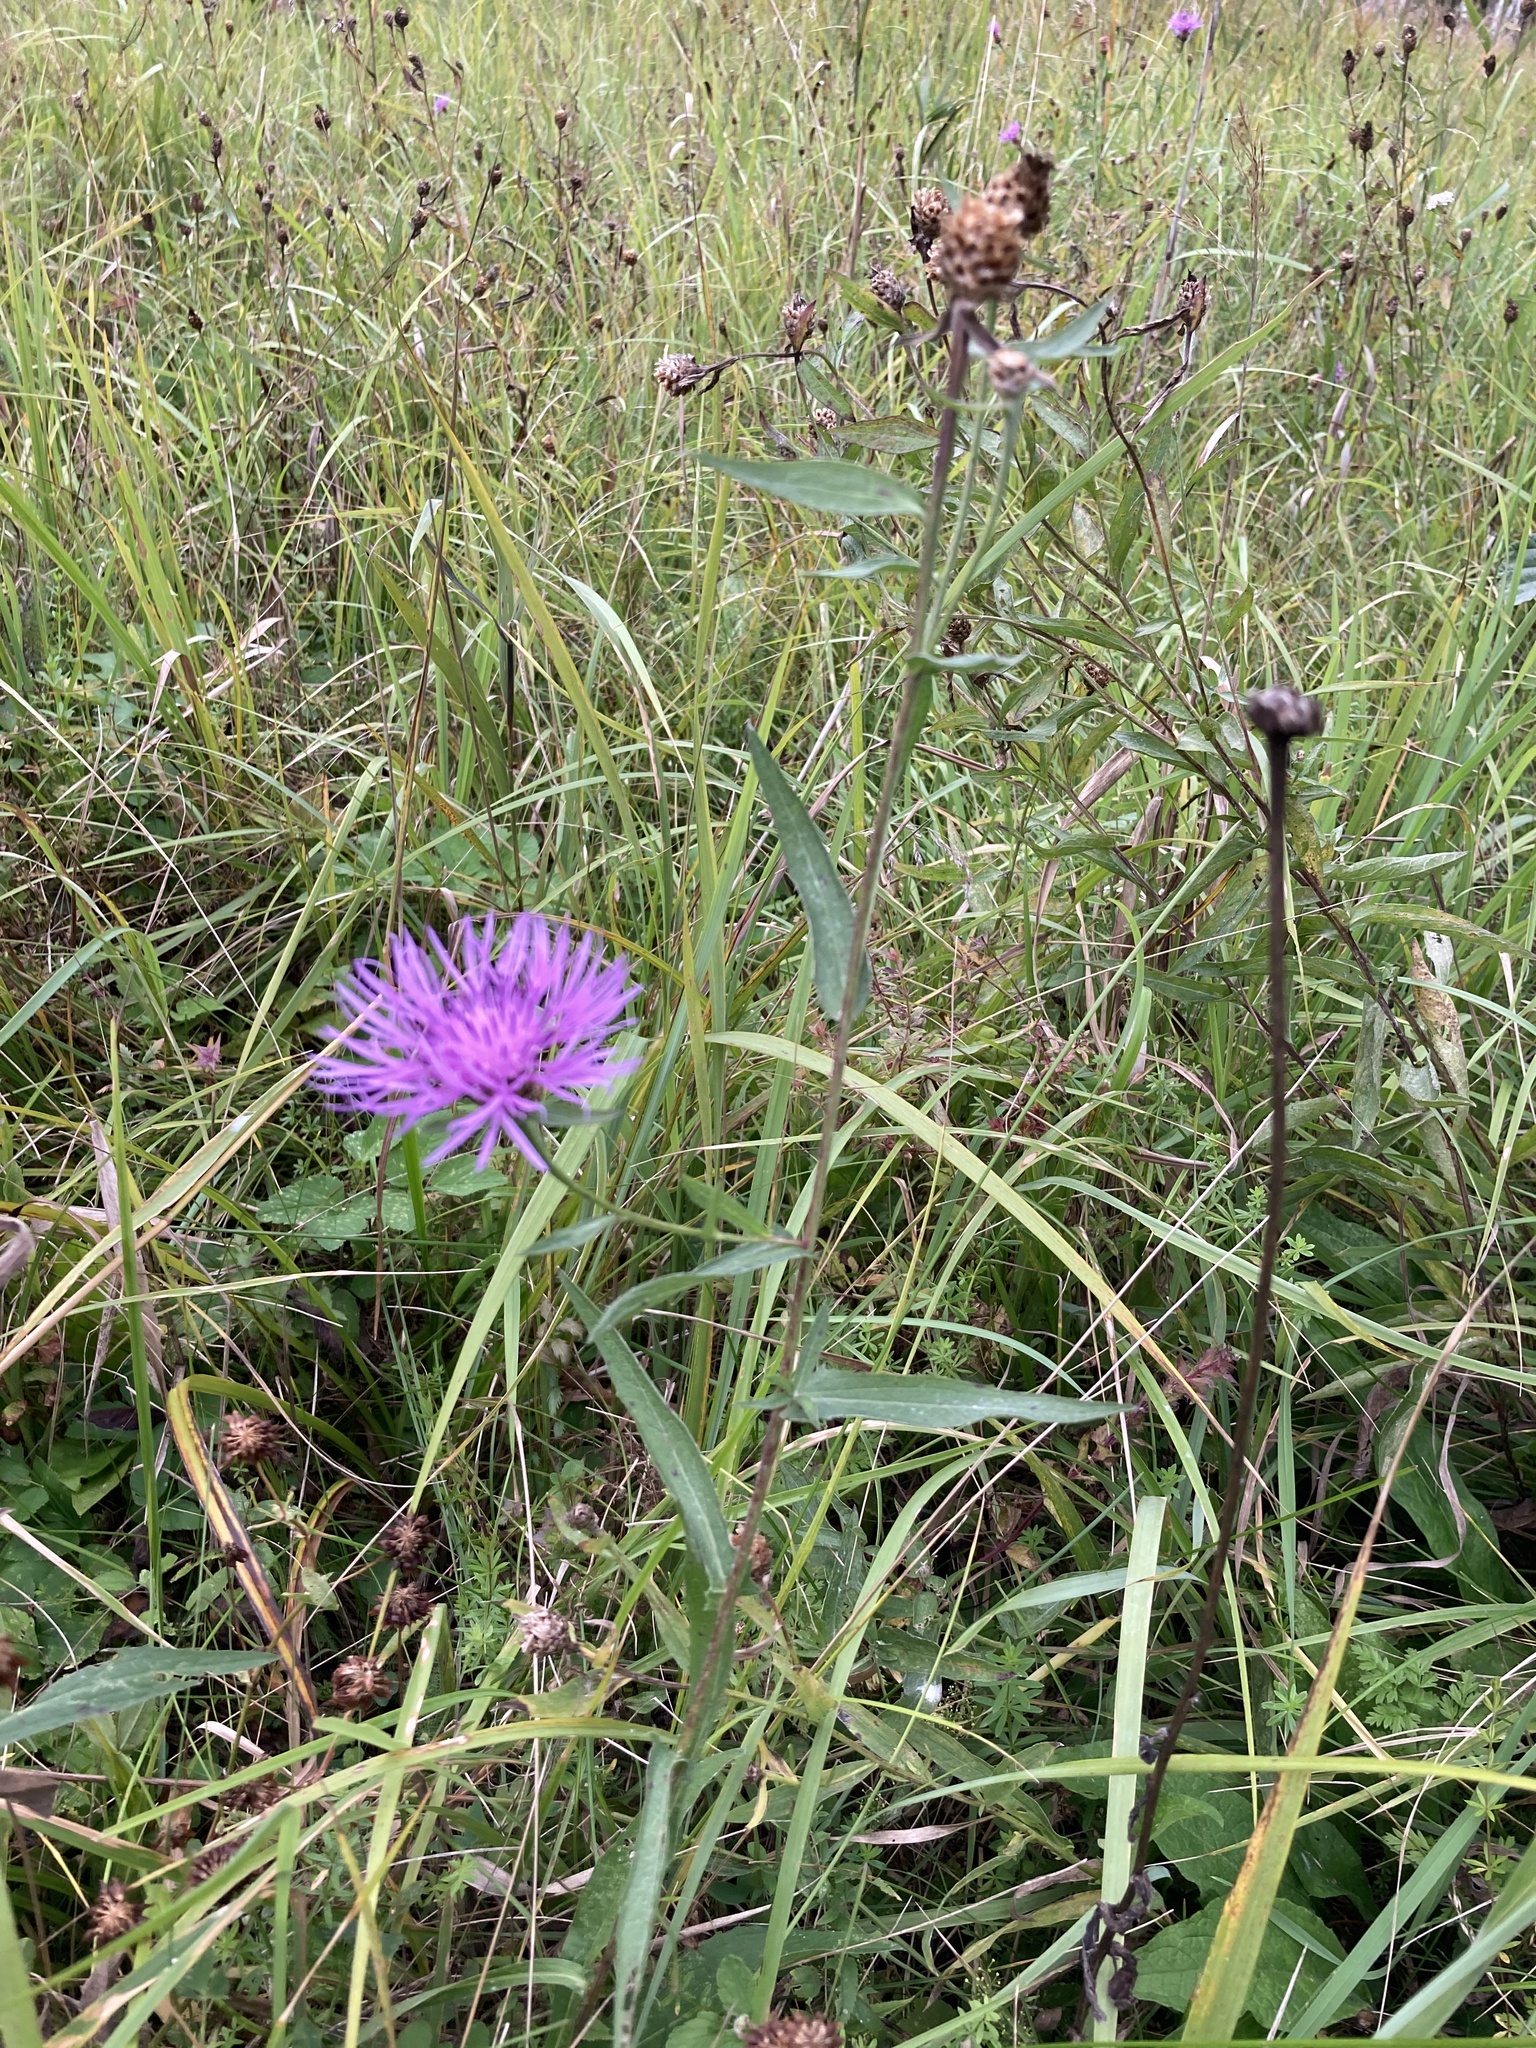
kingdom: Plantae
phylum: Tracheophyta
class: Magnoliopsida
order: Asterales
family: Asteraceae
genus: Centaurea
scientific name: Centaurea jacea
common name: Brown knapweed
